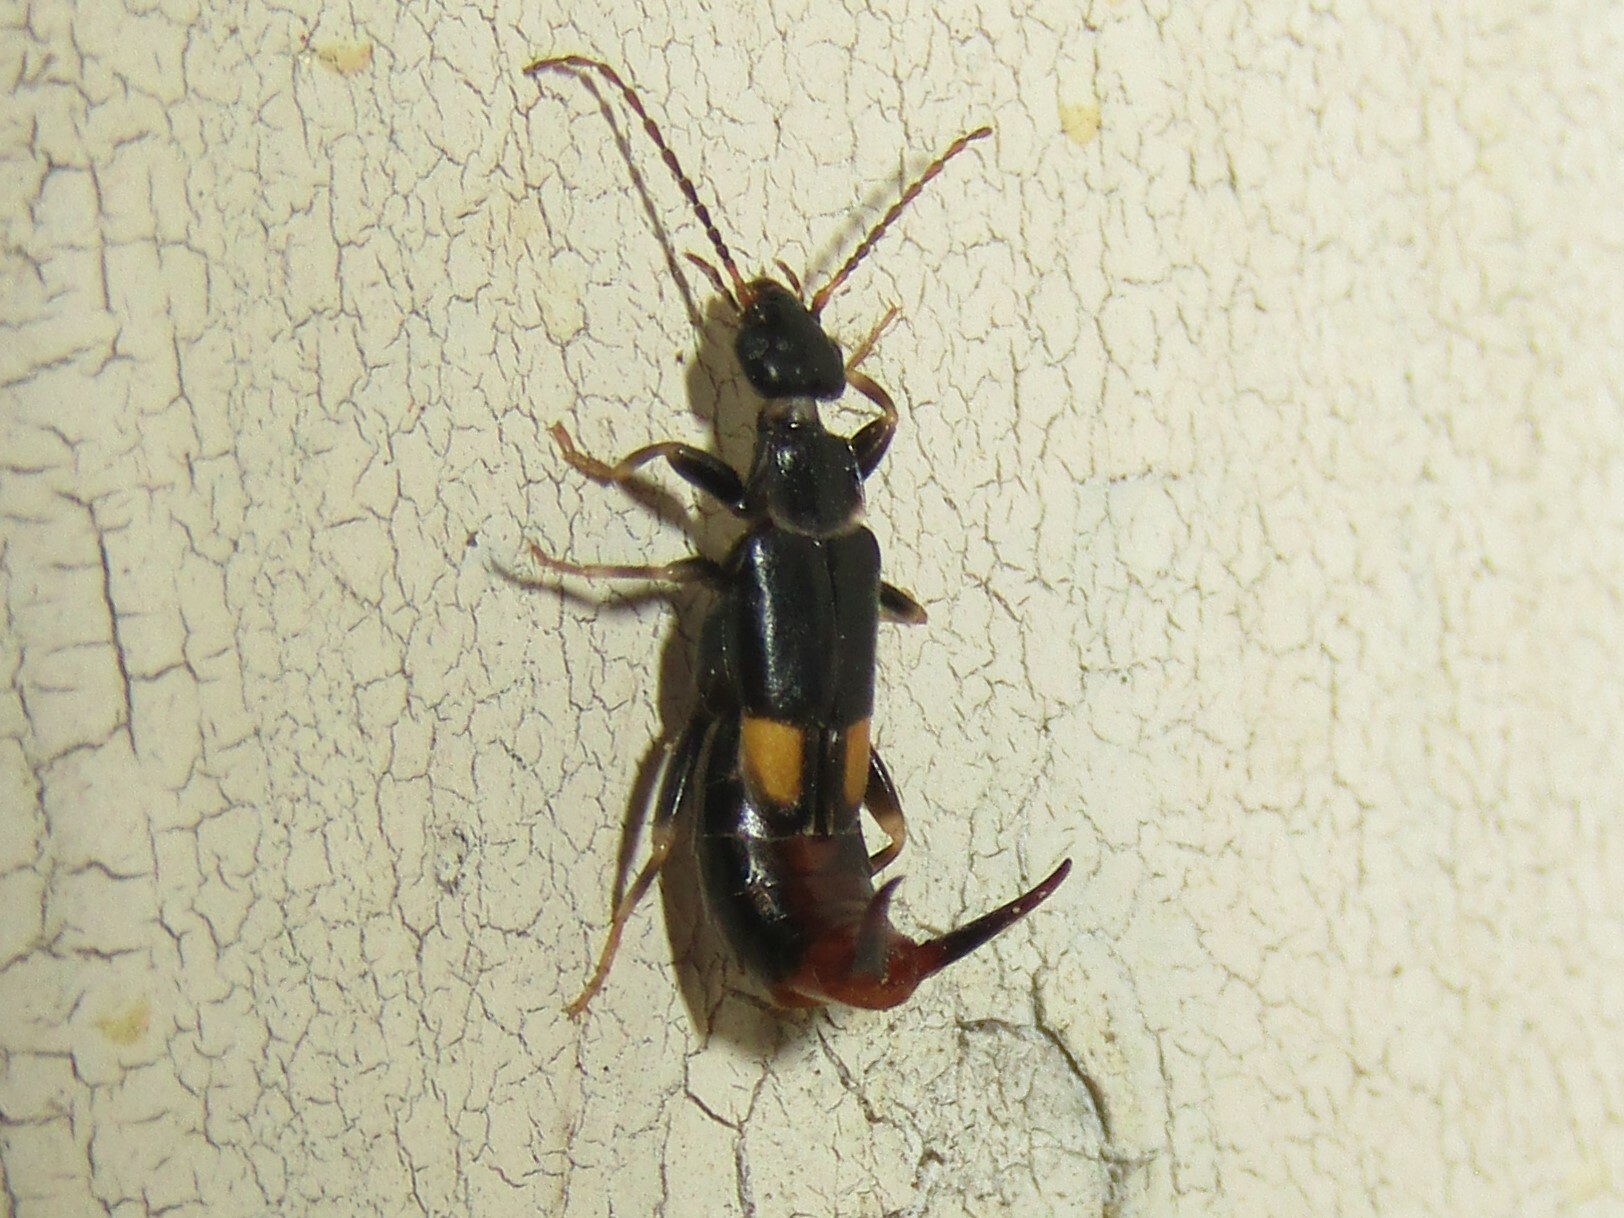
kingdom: Animalia
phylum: Arthropoda
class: Insecta
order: Dermaptera
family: Spongiphoridae
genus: Marava
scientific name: Marava arachidis
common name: Little earwig
